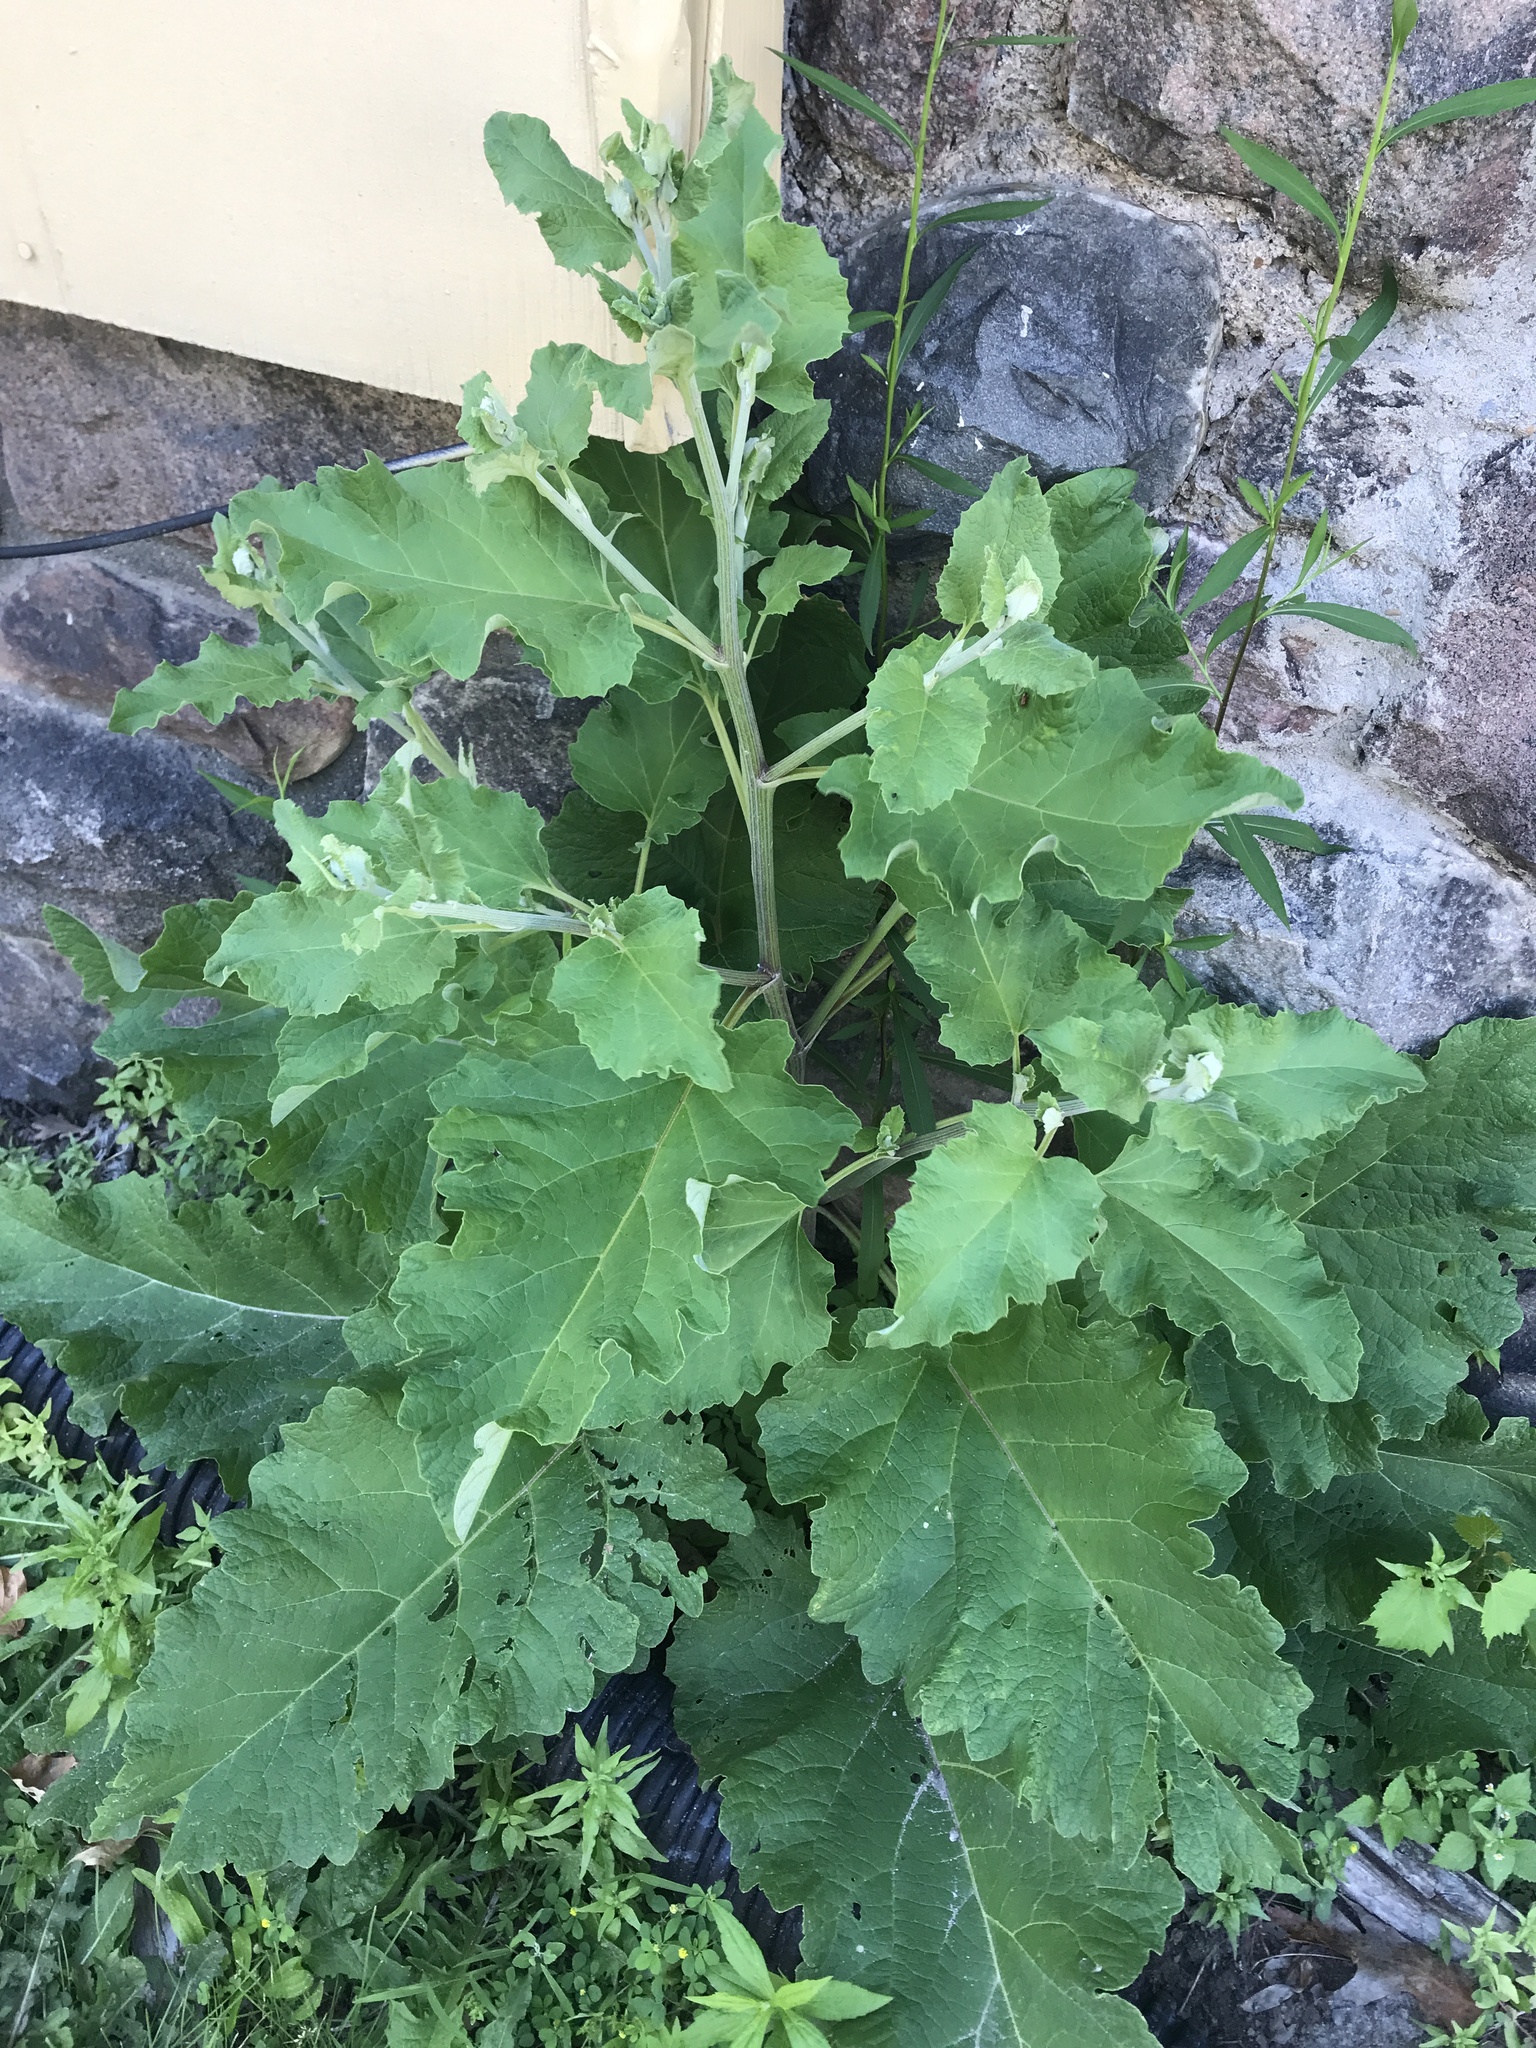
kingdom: Plantae
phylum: Tracheophyta
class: Magnoliopsida
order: Asterales
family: Asteraceae
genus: Arctium
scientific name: Arctium
